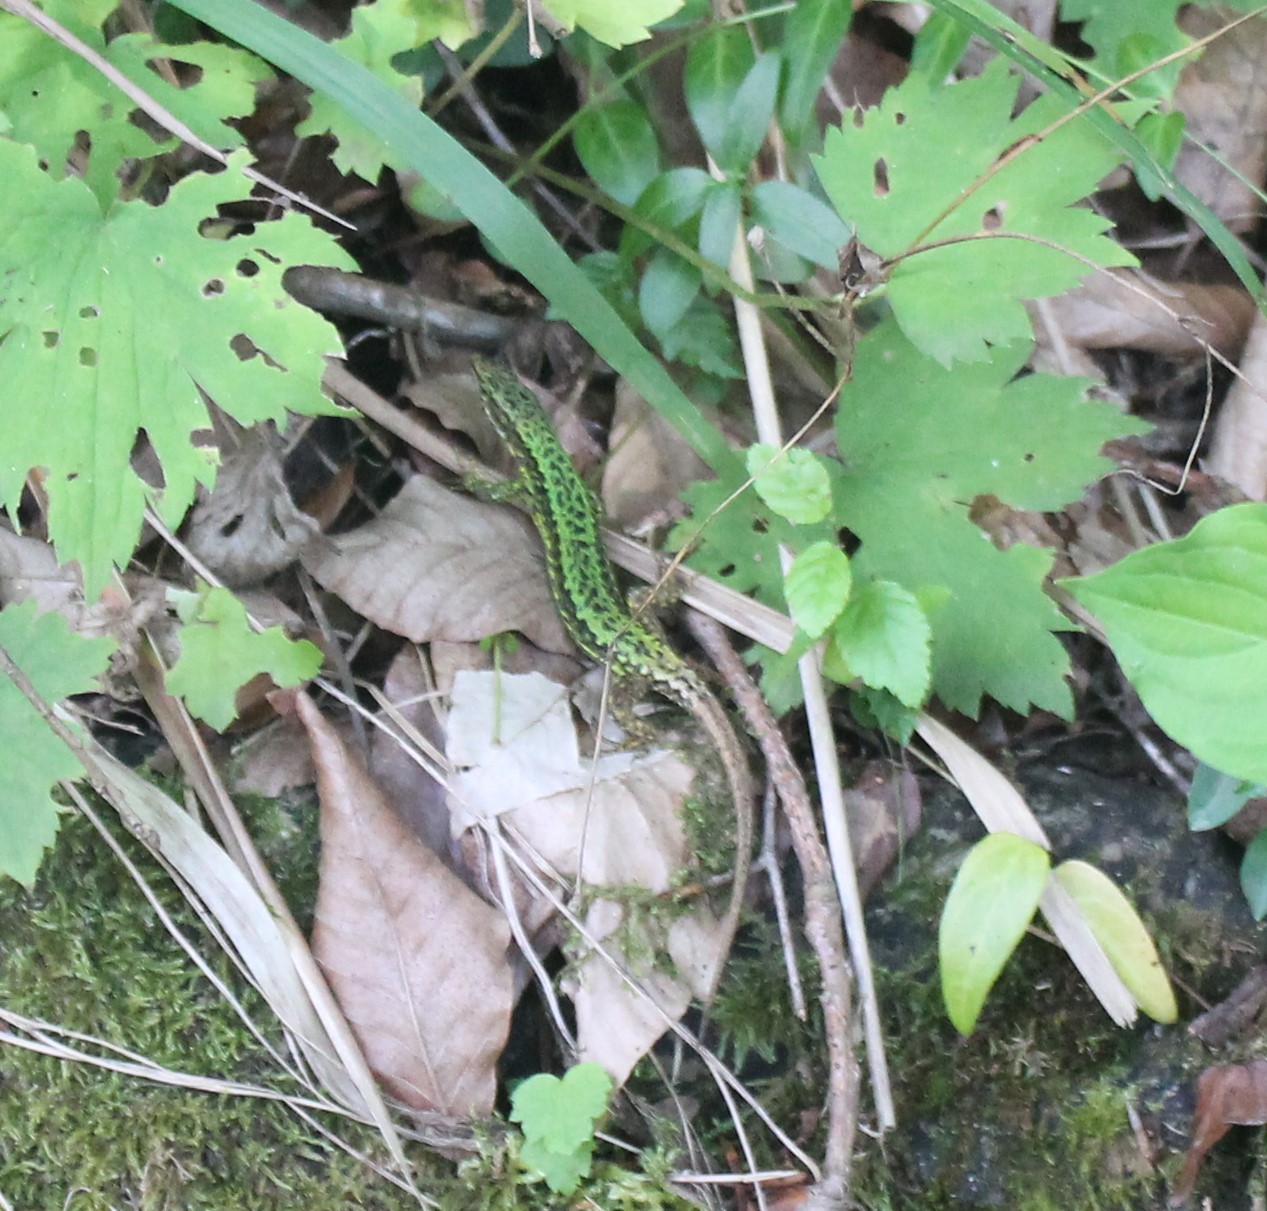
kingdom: Animalia
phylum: Chordata
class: Squamata
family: Lacertidae
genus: Darevskia
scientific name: Darevskia brauneri
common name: Brauner's rock lizard
